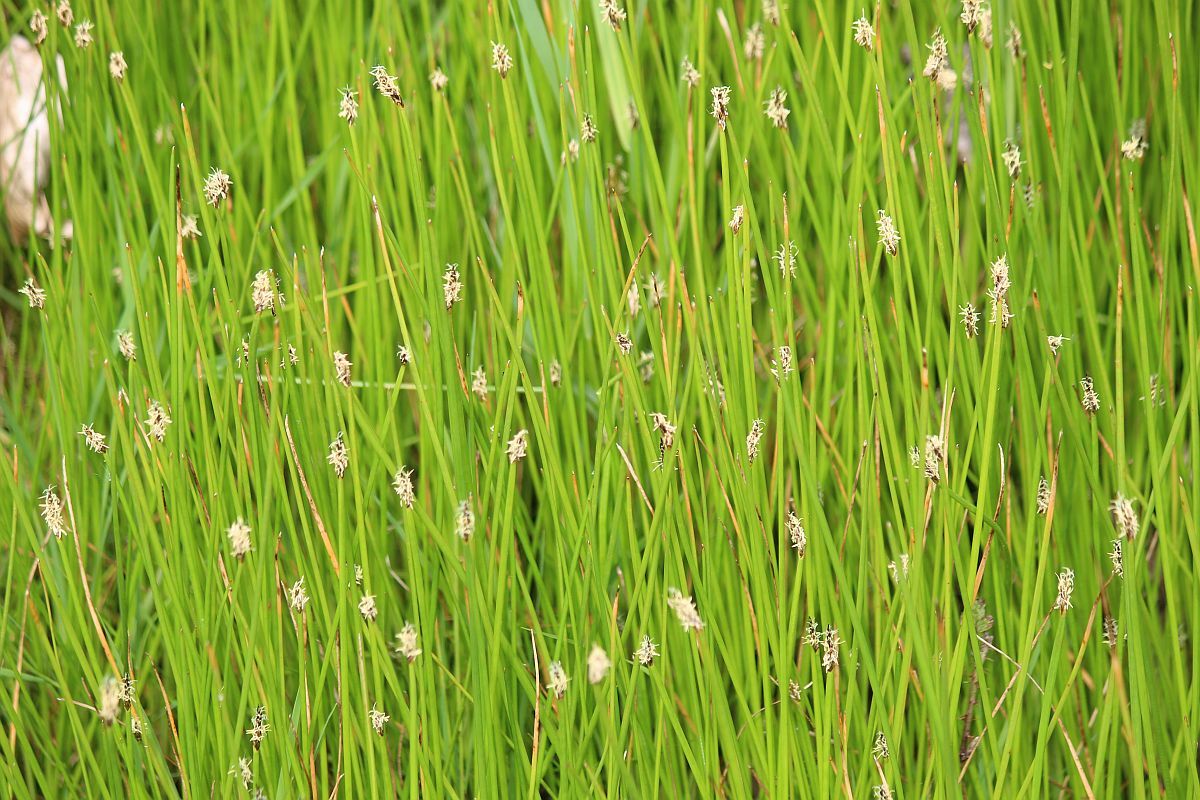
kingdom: Plantae
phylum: Tracheophyta
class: Liliopsida
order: Poales
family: Cyperaceae
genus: Eleocharis
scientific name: Eleocharis palustris
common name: Common spike-rush
